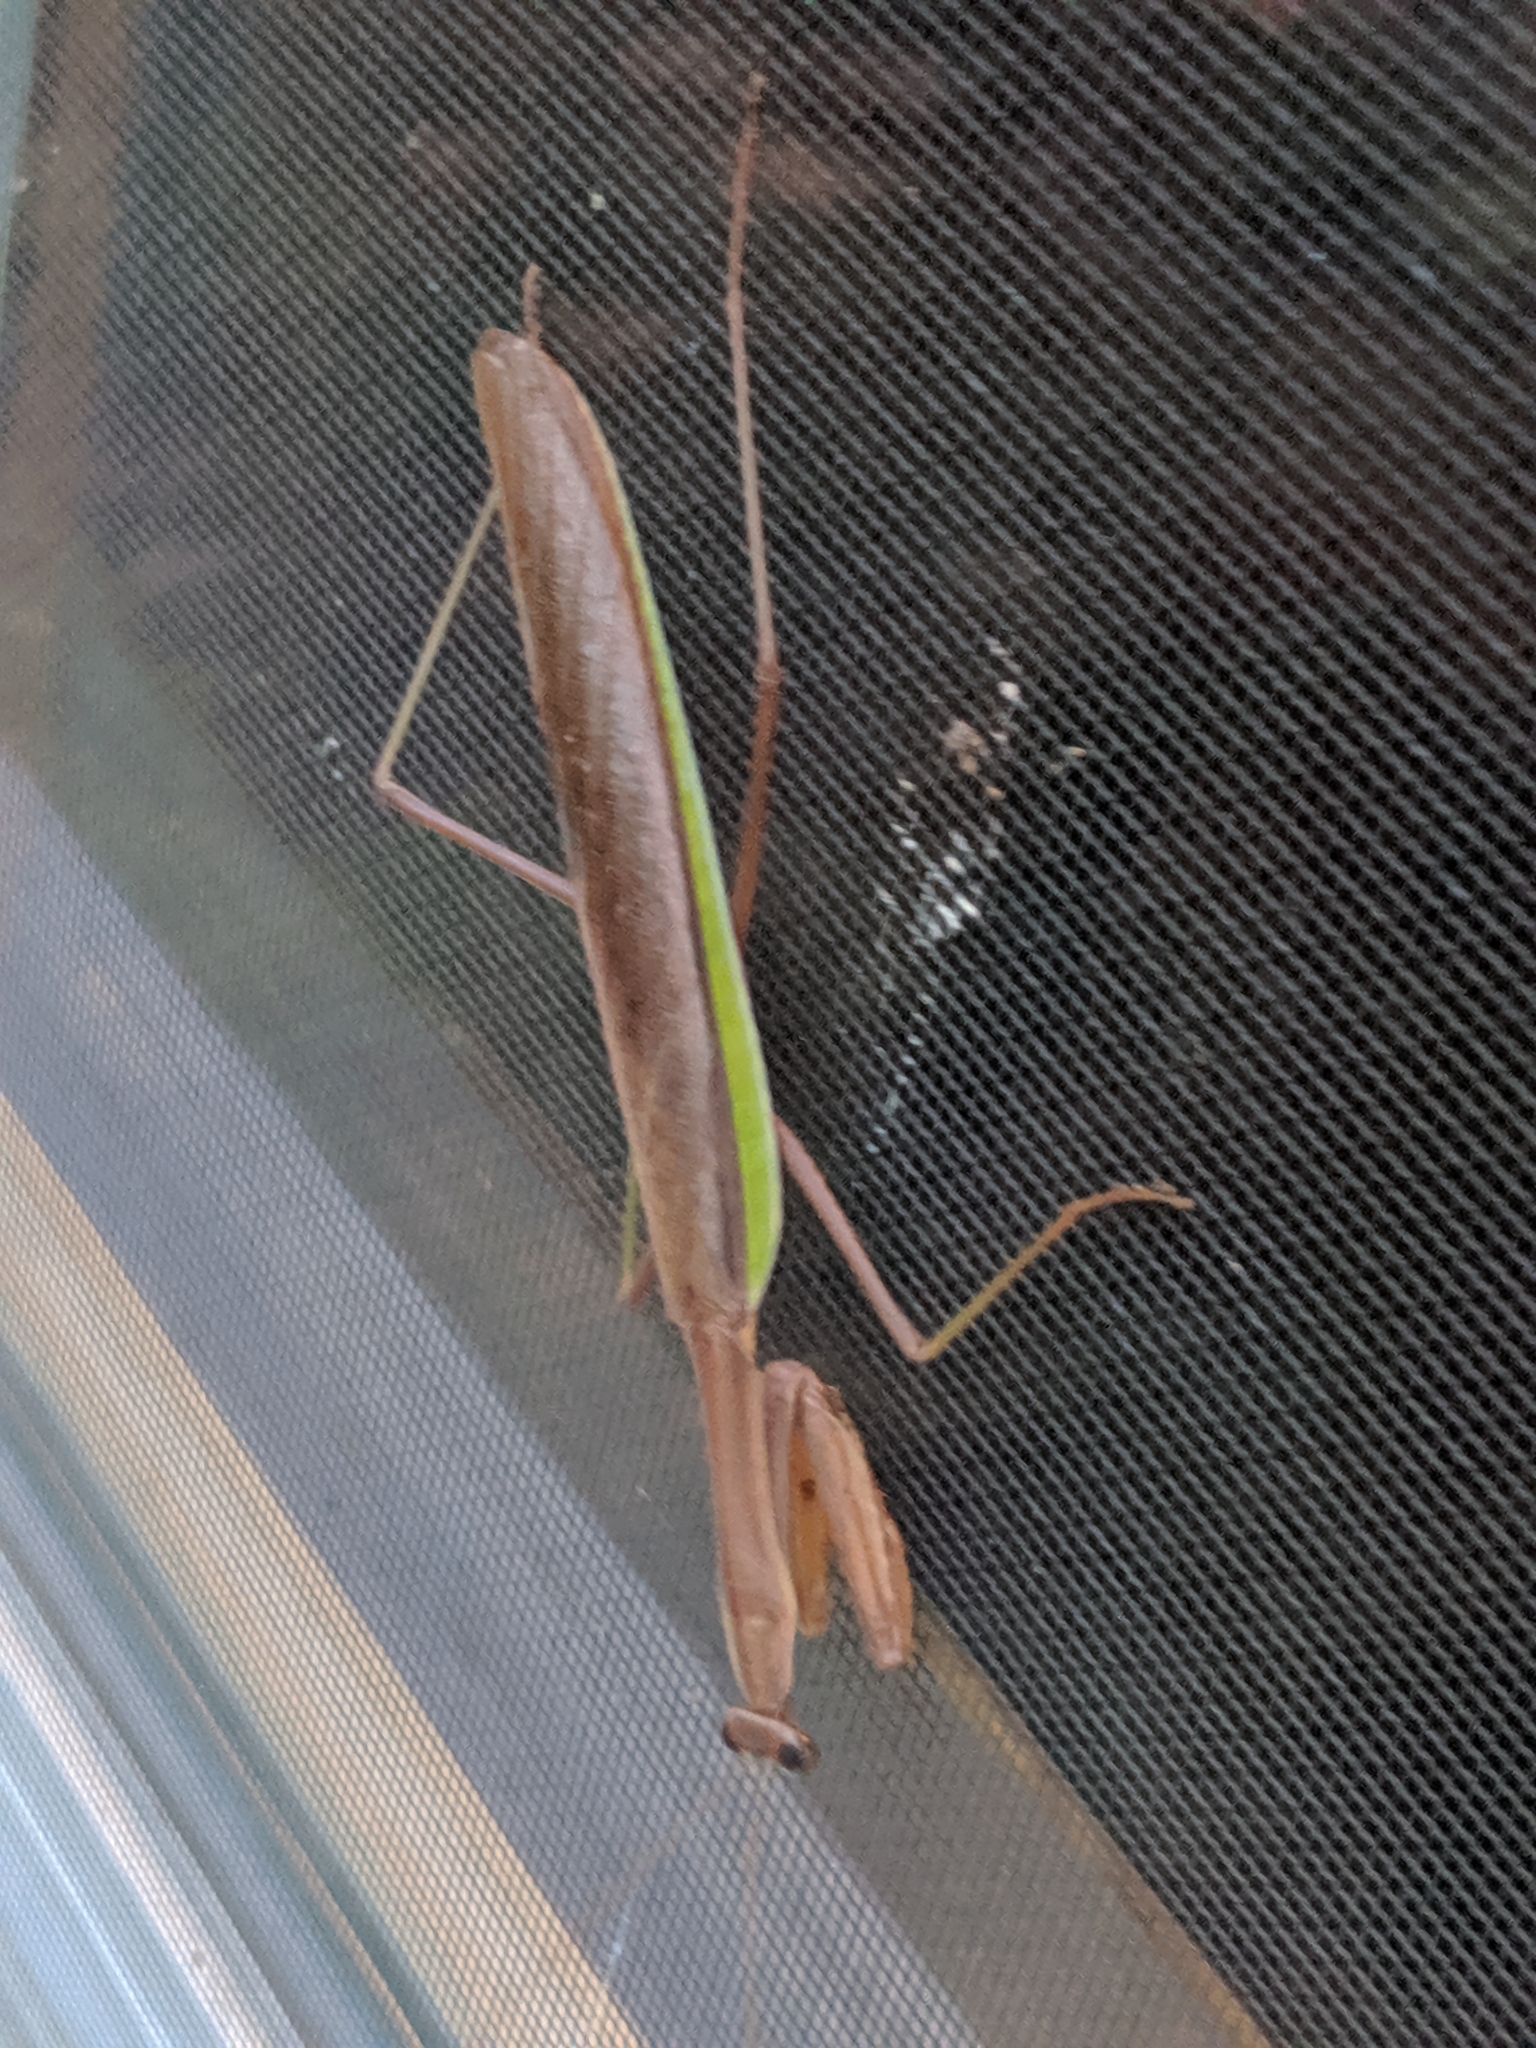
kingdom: Animalia
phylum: Arthropoda
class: Insecta
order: Mantodea
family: Mantidae
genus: Tenodera
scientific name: Tenodera sinensis
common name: Chinese mantis
